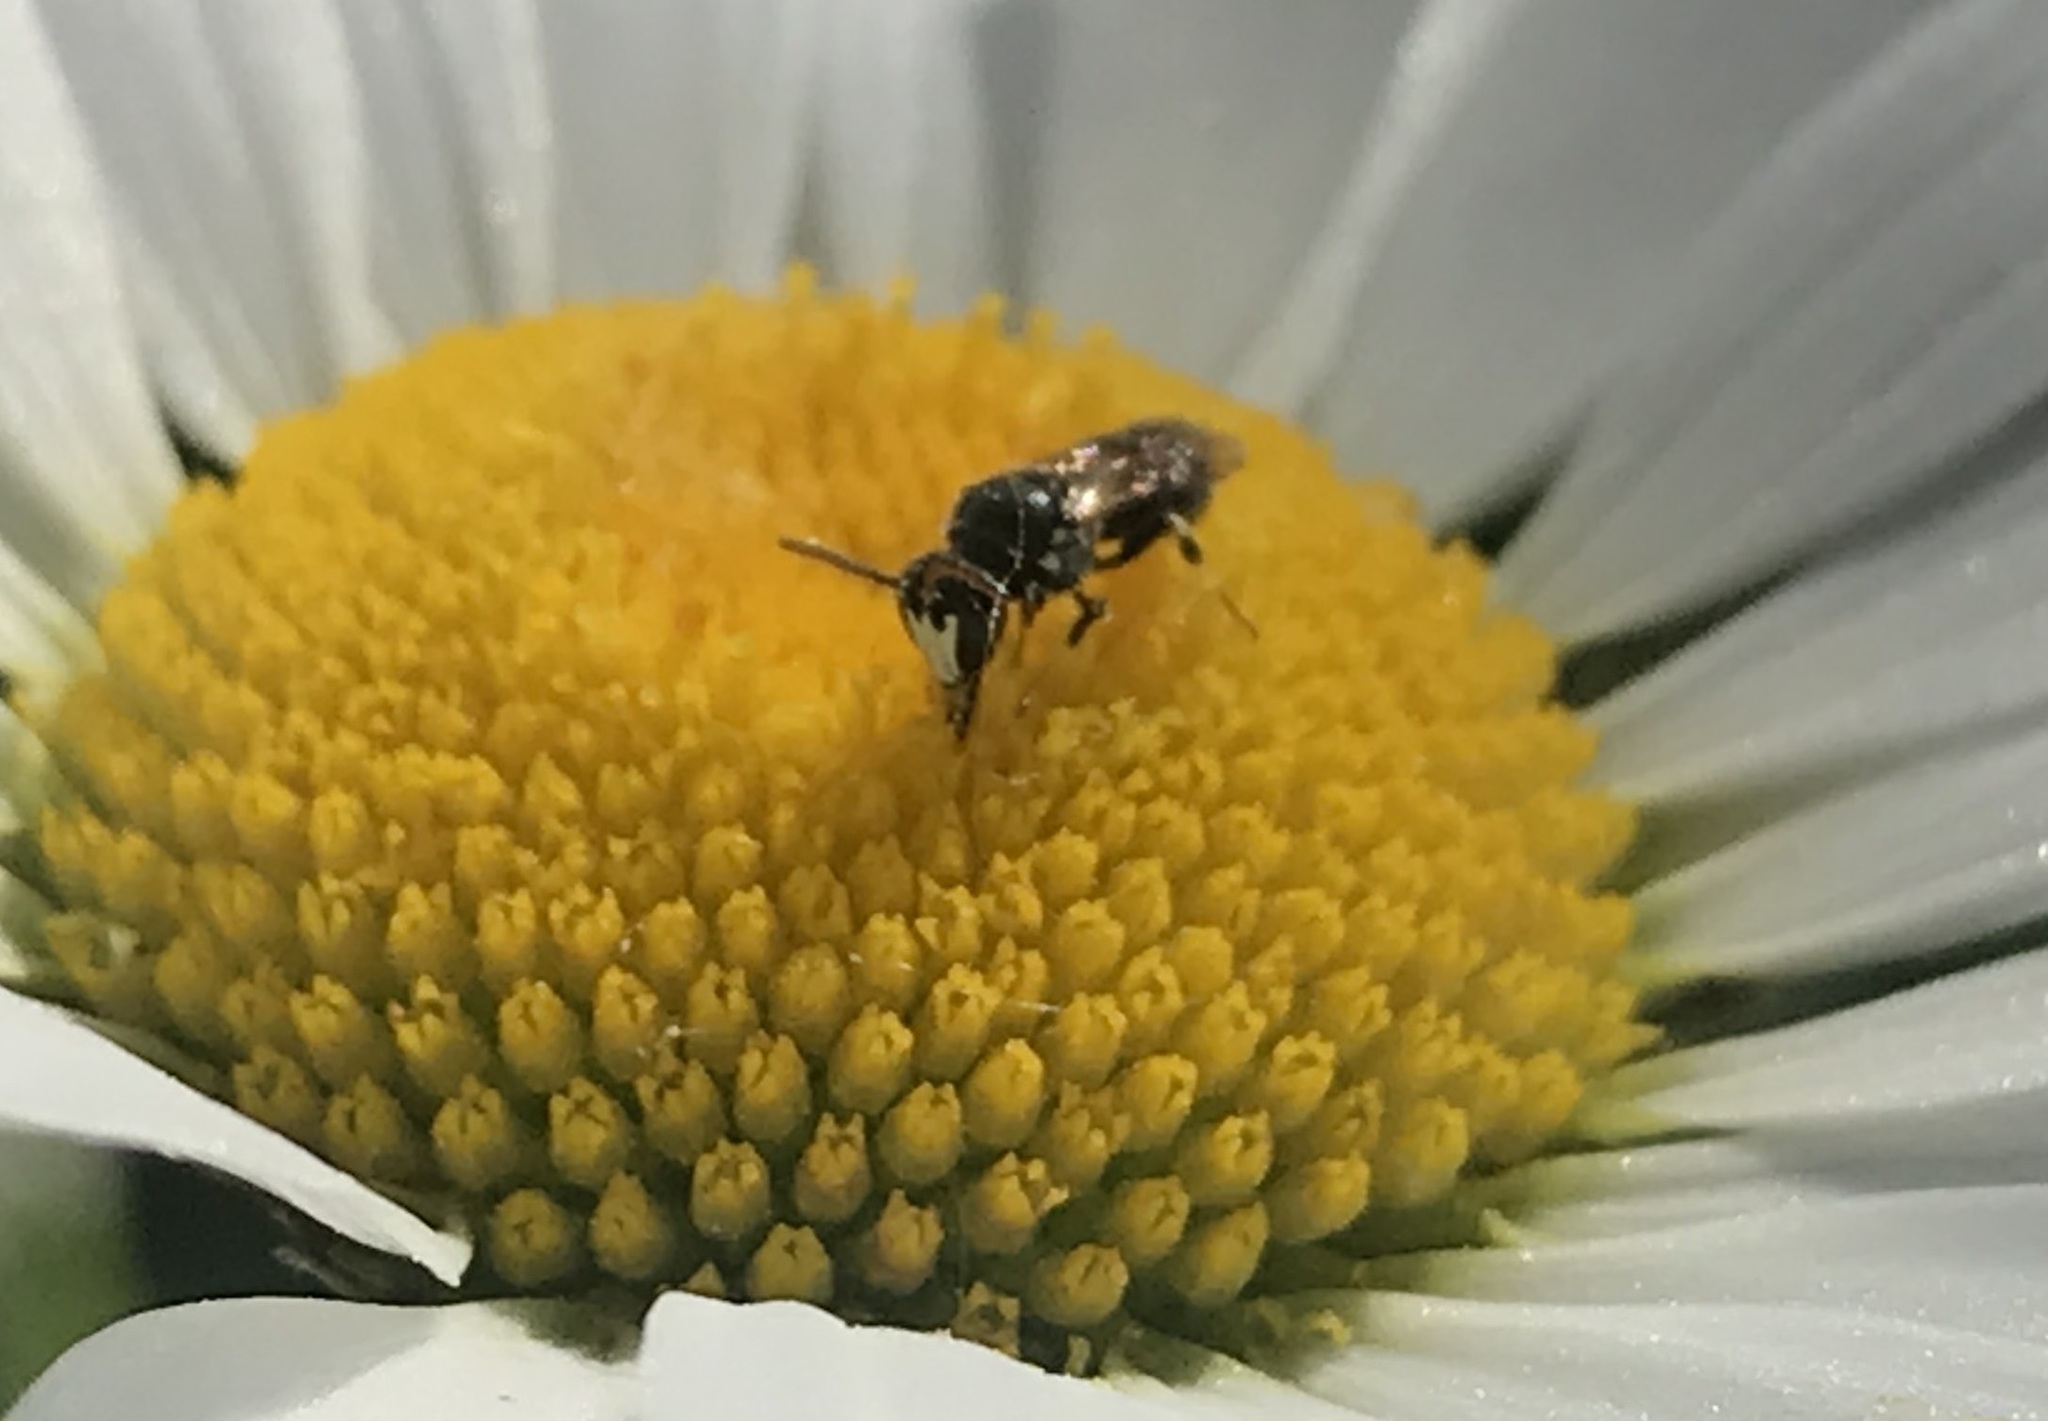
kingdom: Animalia
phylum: Arthropoda
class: Insecta
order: Hymenoptera
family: Colletidae
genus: Hylaeus
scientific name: Hylaeus leptocephalus
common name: Slender-faced masked bee
